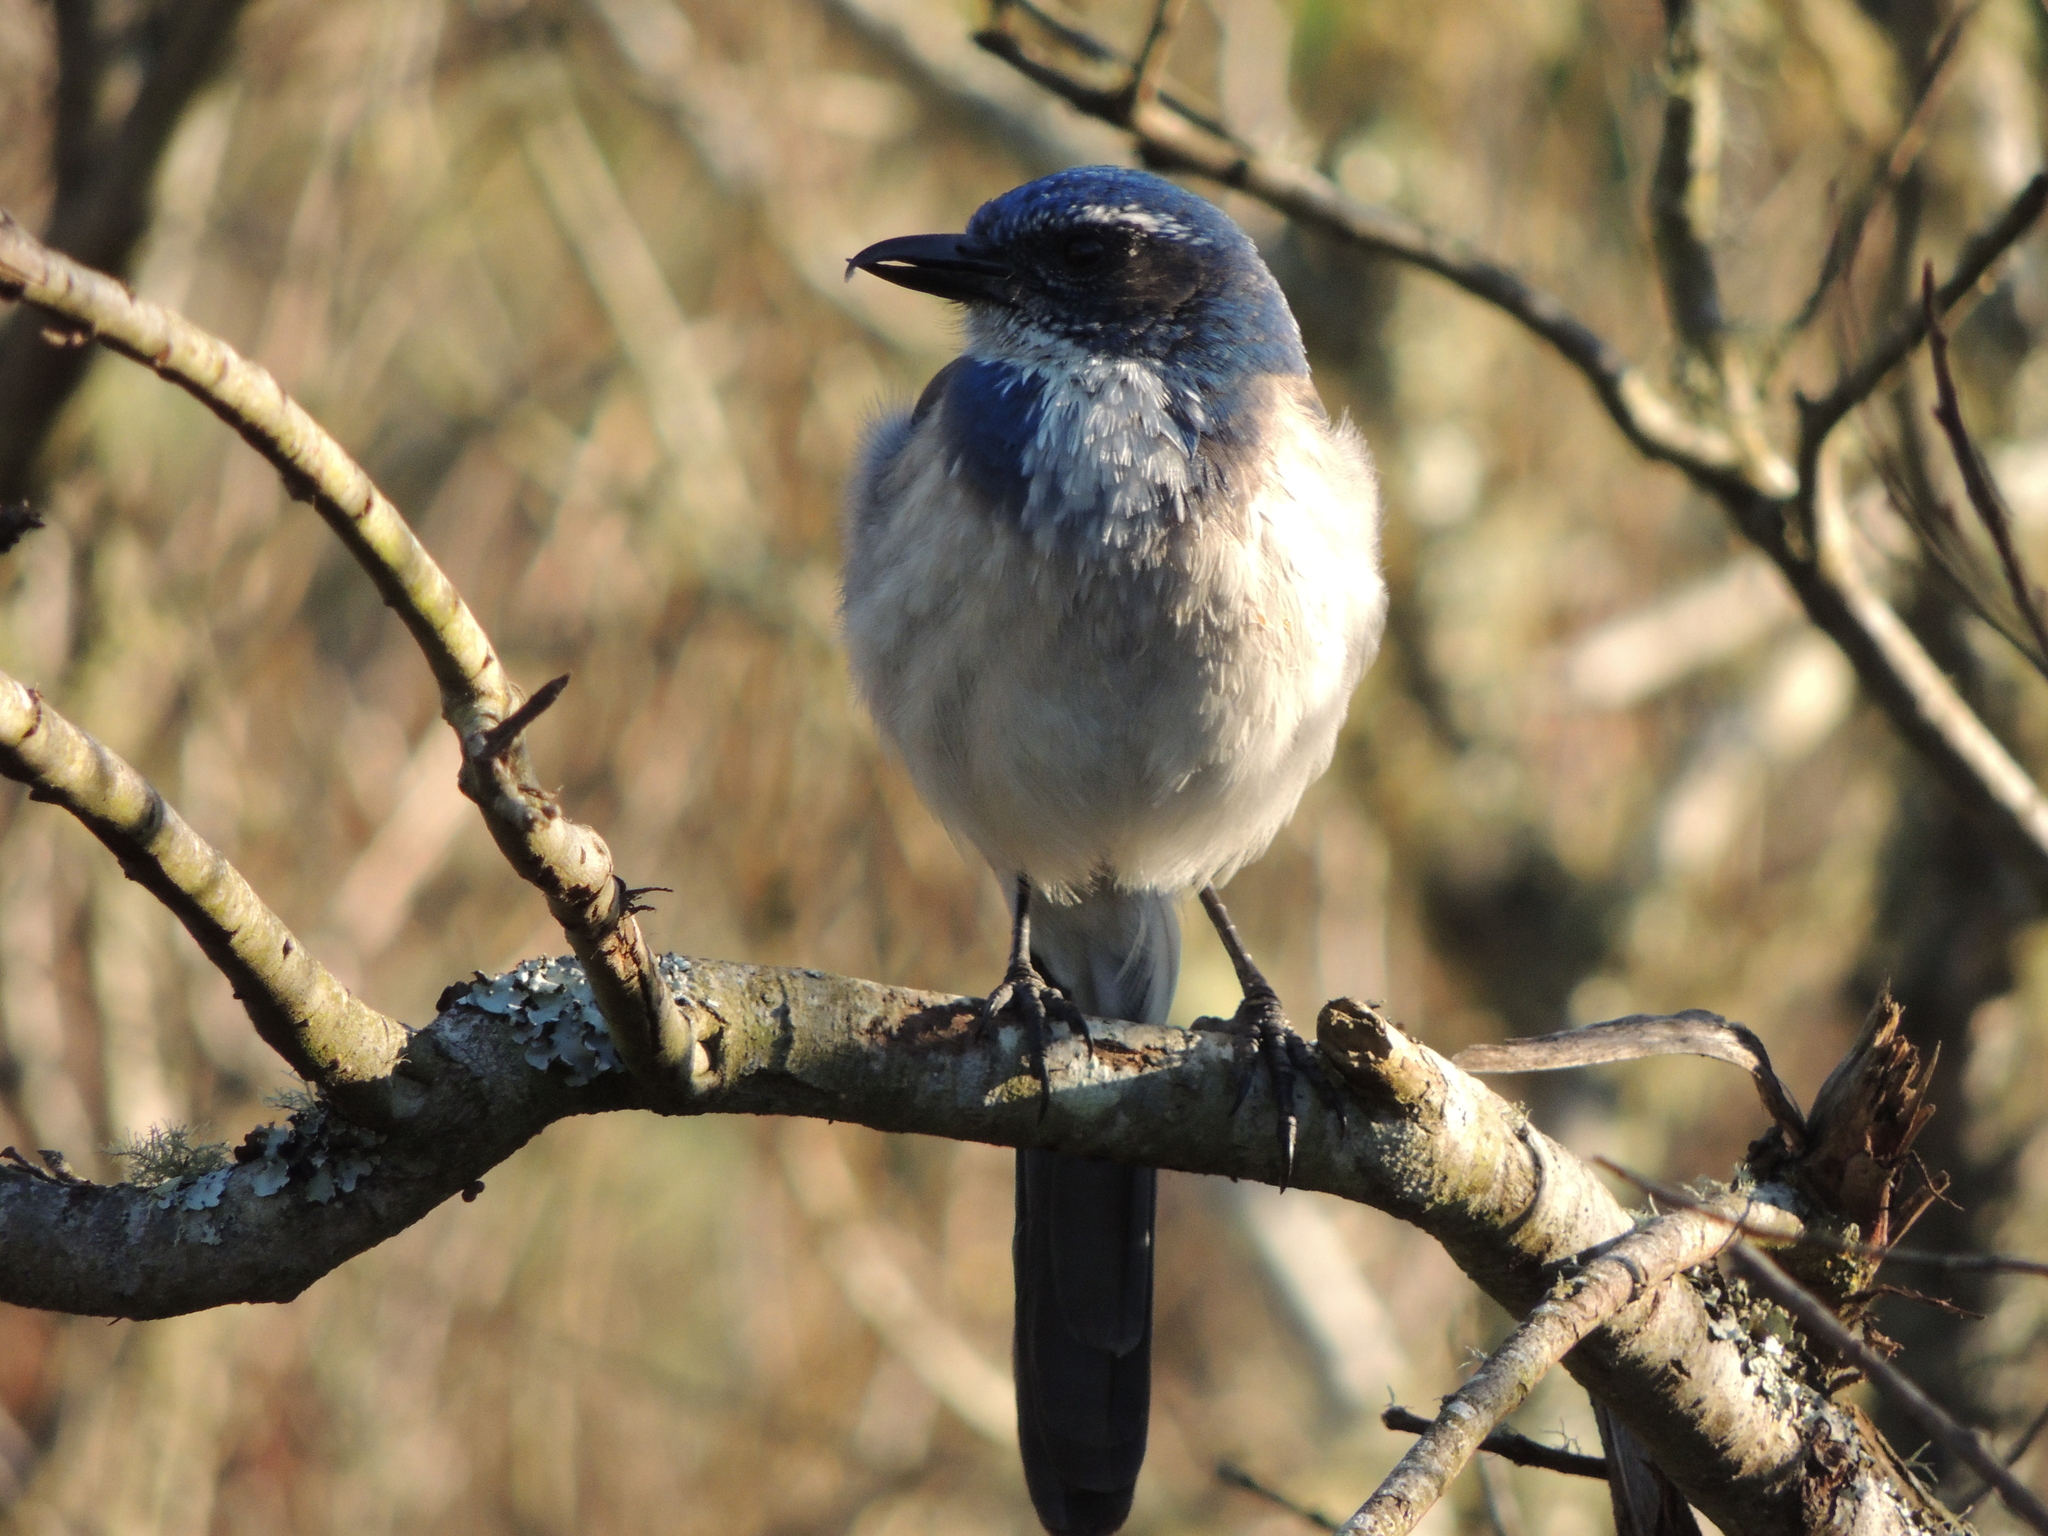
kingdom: Animalia
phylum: Chordata
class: Aves
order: Passeriformes
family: Corvidae
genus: Aphelocoma
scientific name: Aphelocoma californica
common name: California scrub-jay
